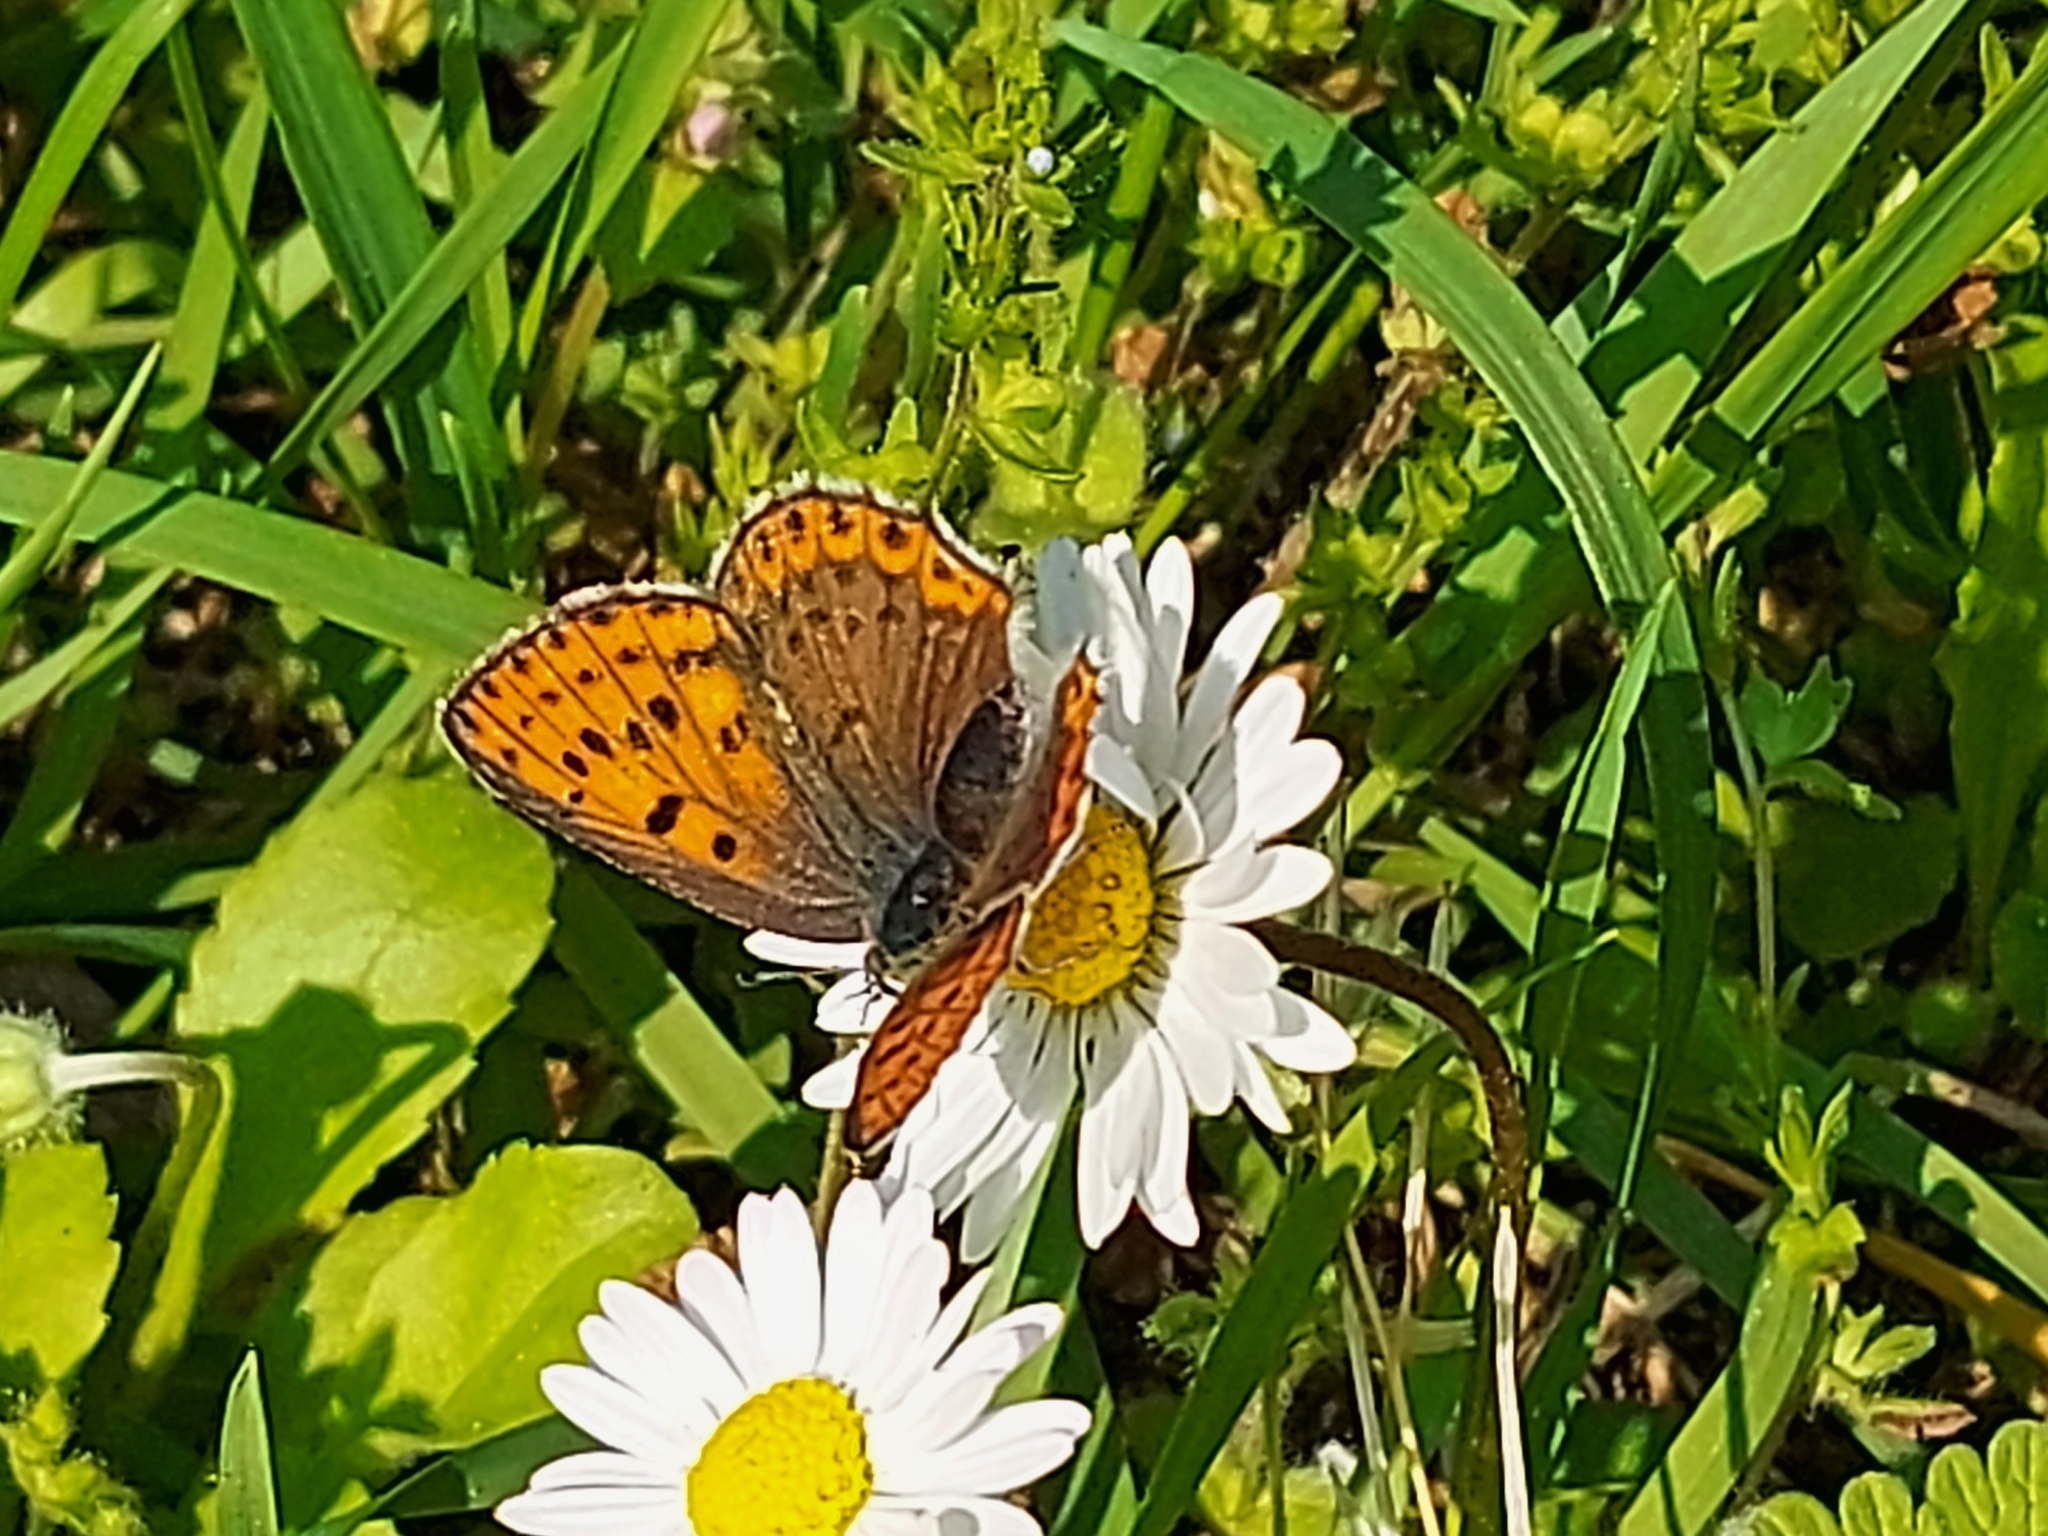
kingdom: Animalia
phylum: Arthropoda
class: Insecta
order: Lepidoptera
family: Lycaenidae
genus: Loweia
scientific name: Loweia tityrus
